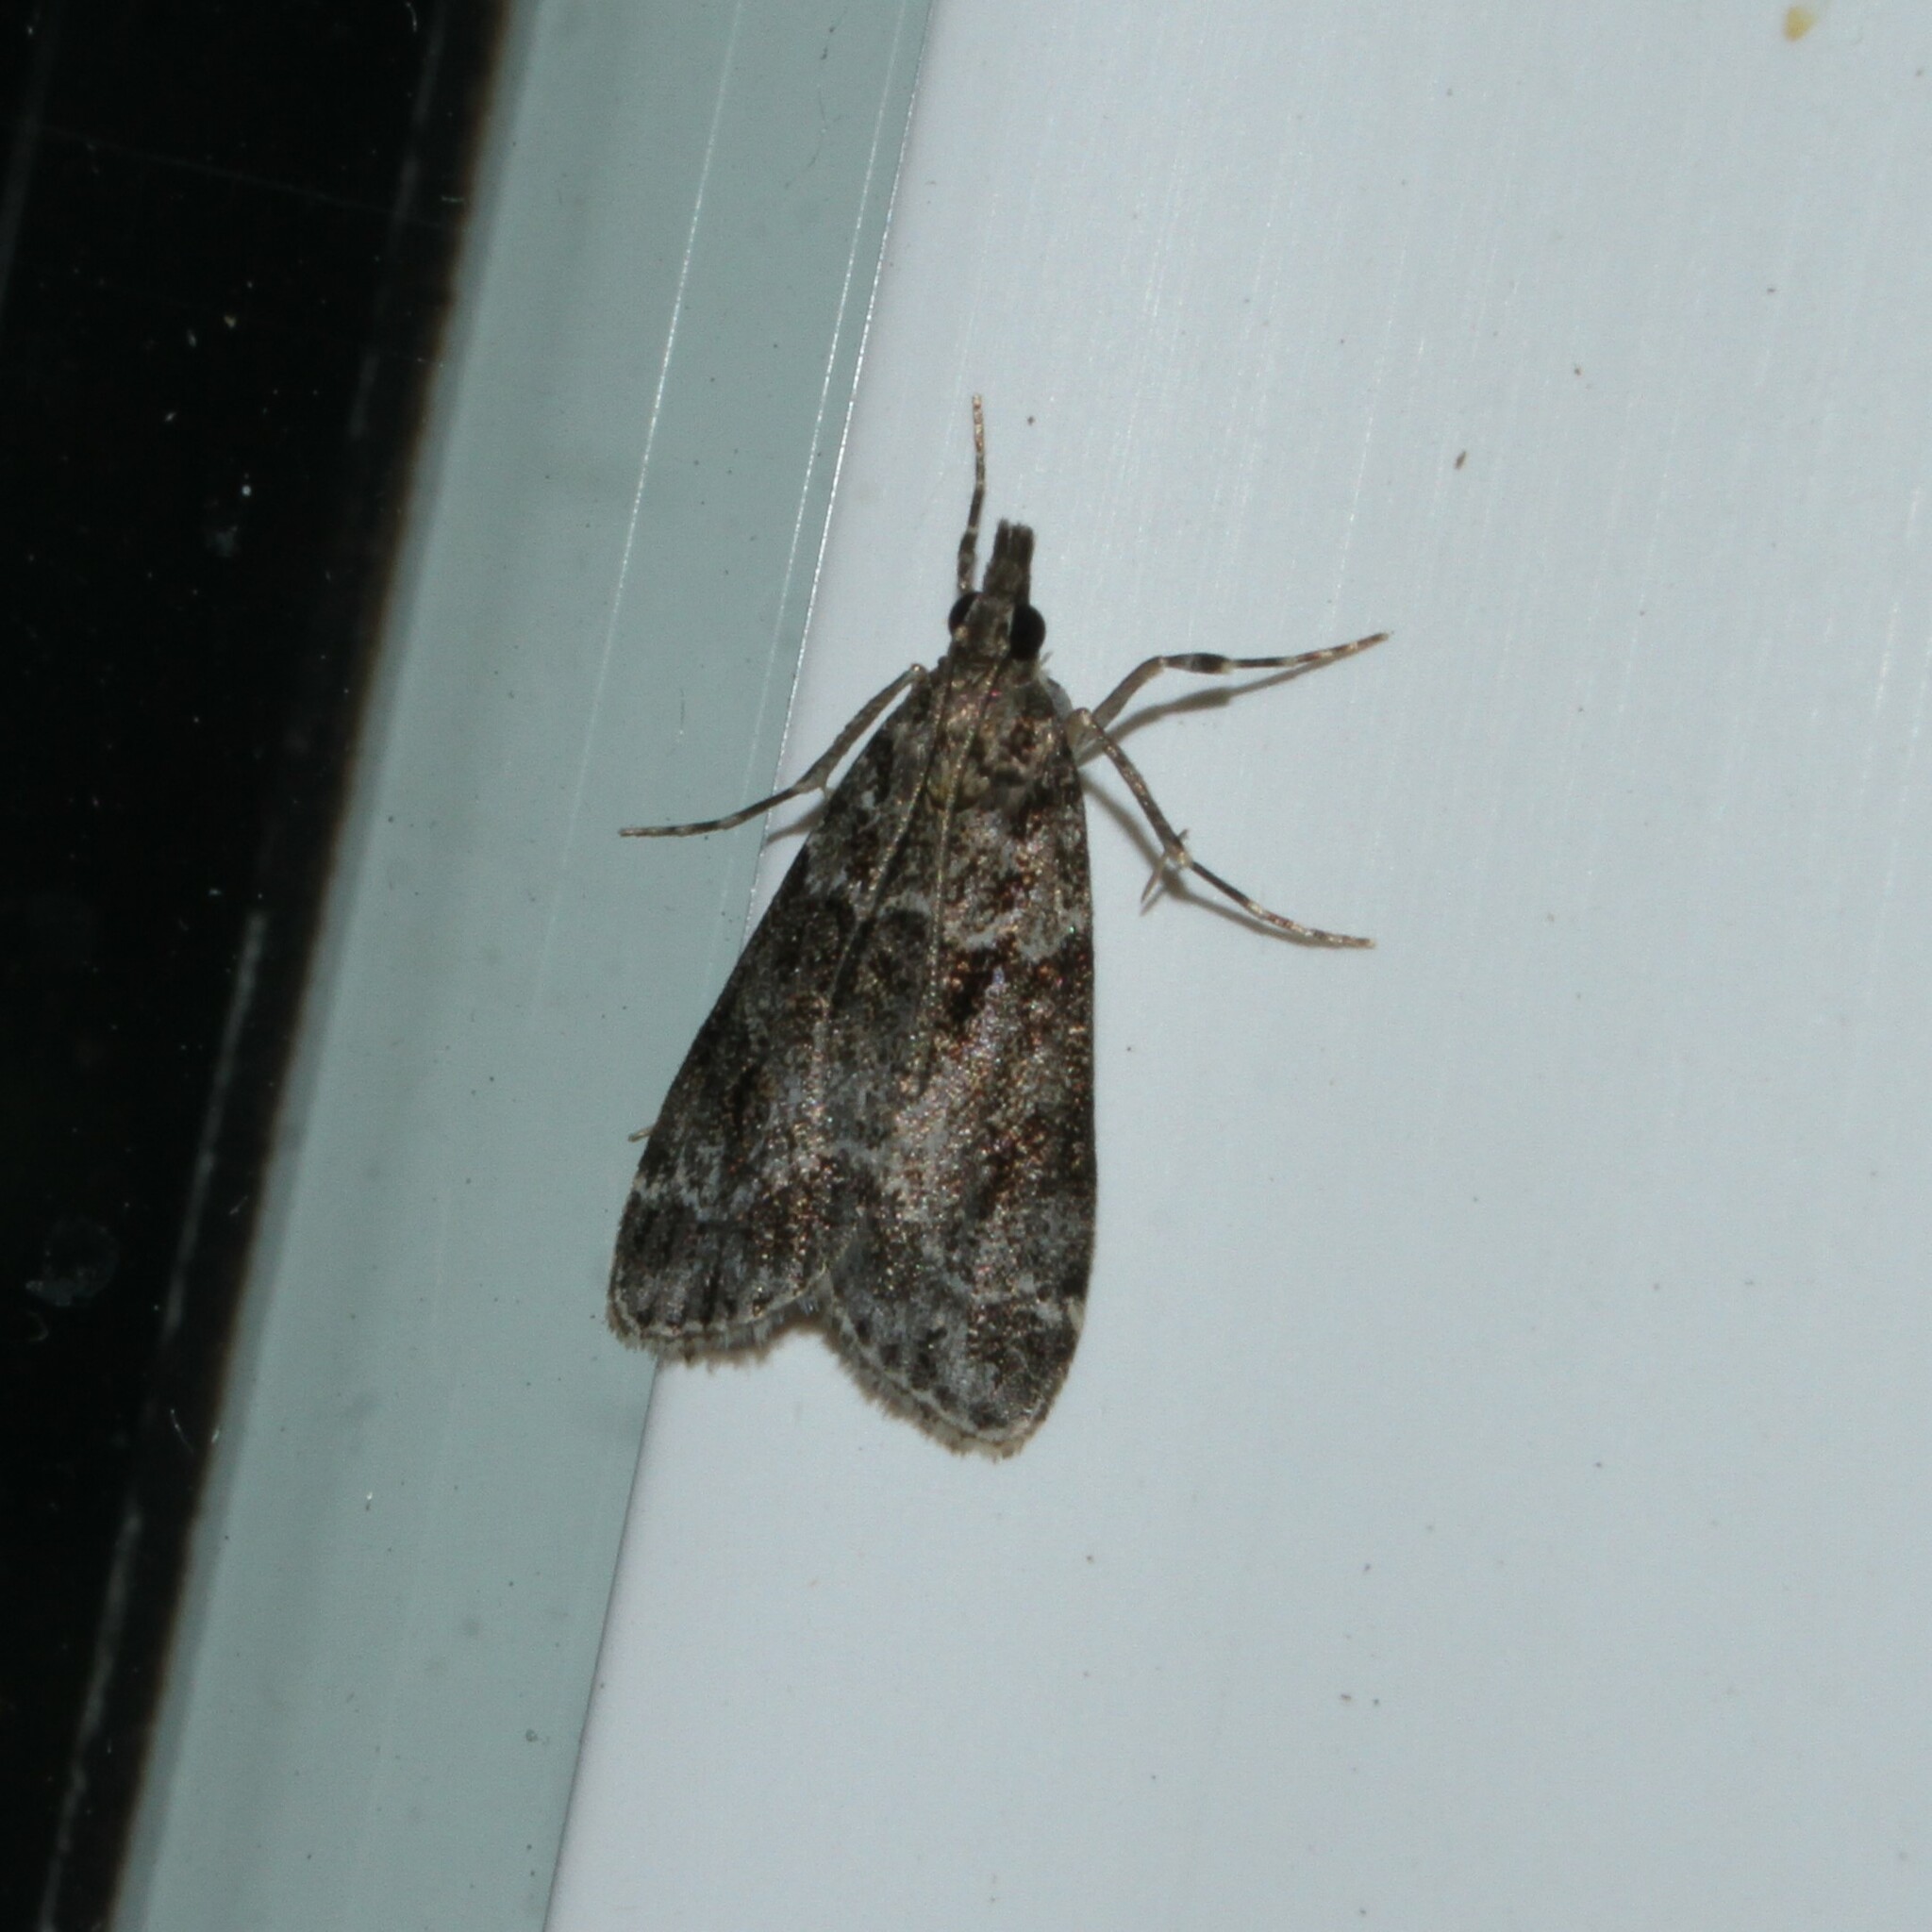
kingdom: Animalia
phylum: Arthropoda
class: Insecta
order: Lepidoptera
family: Crambidae
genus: Eudonia
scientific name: Eudonia mercurella
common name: Small grey
